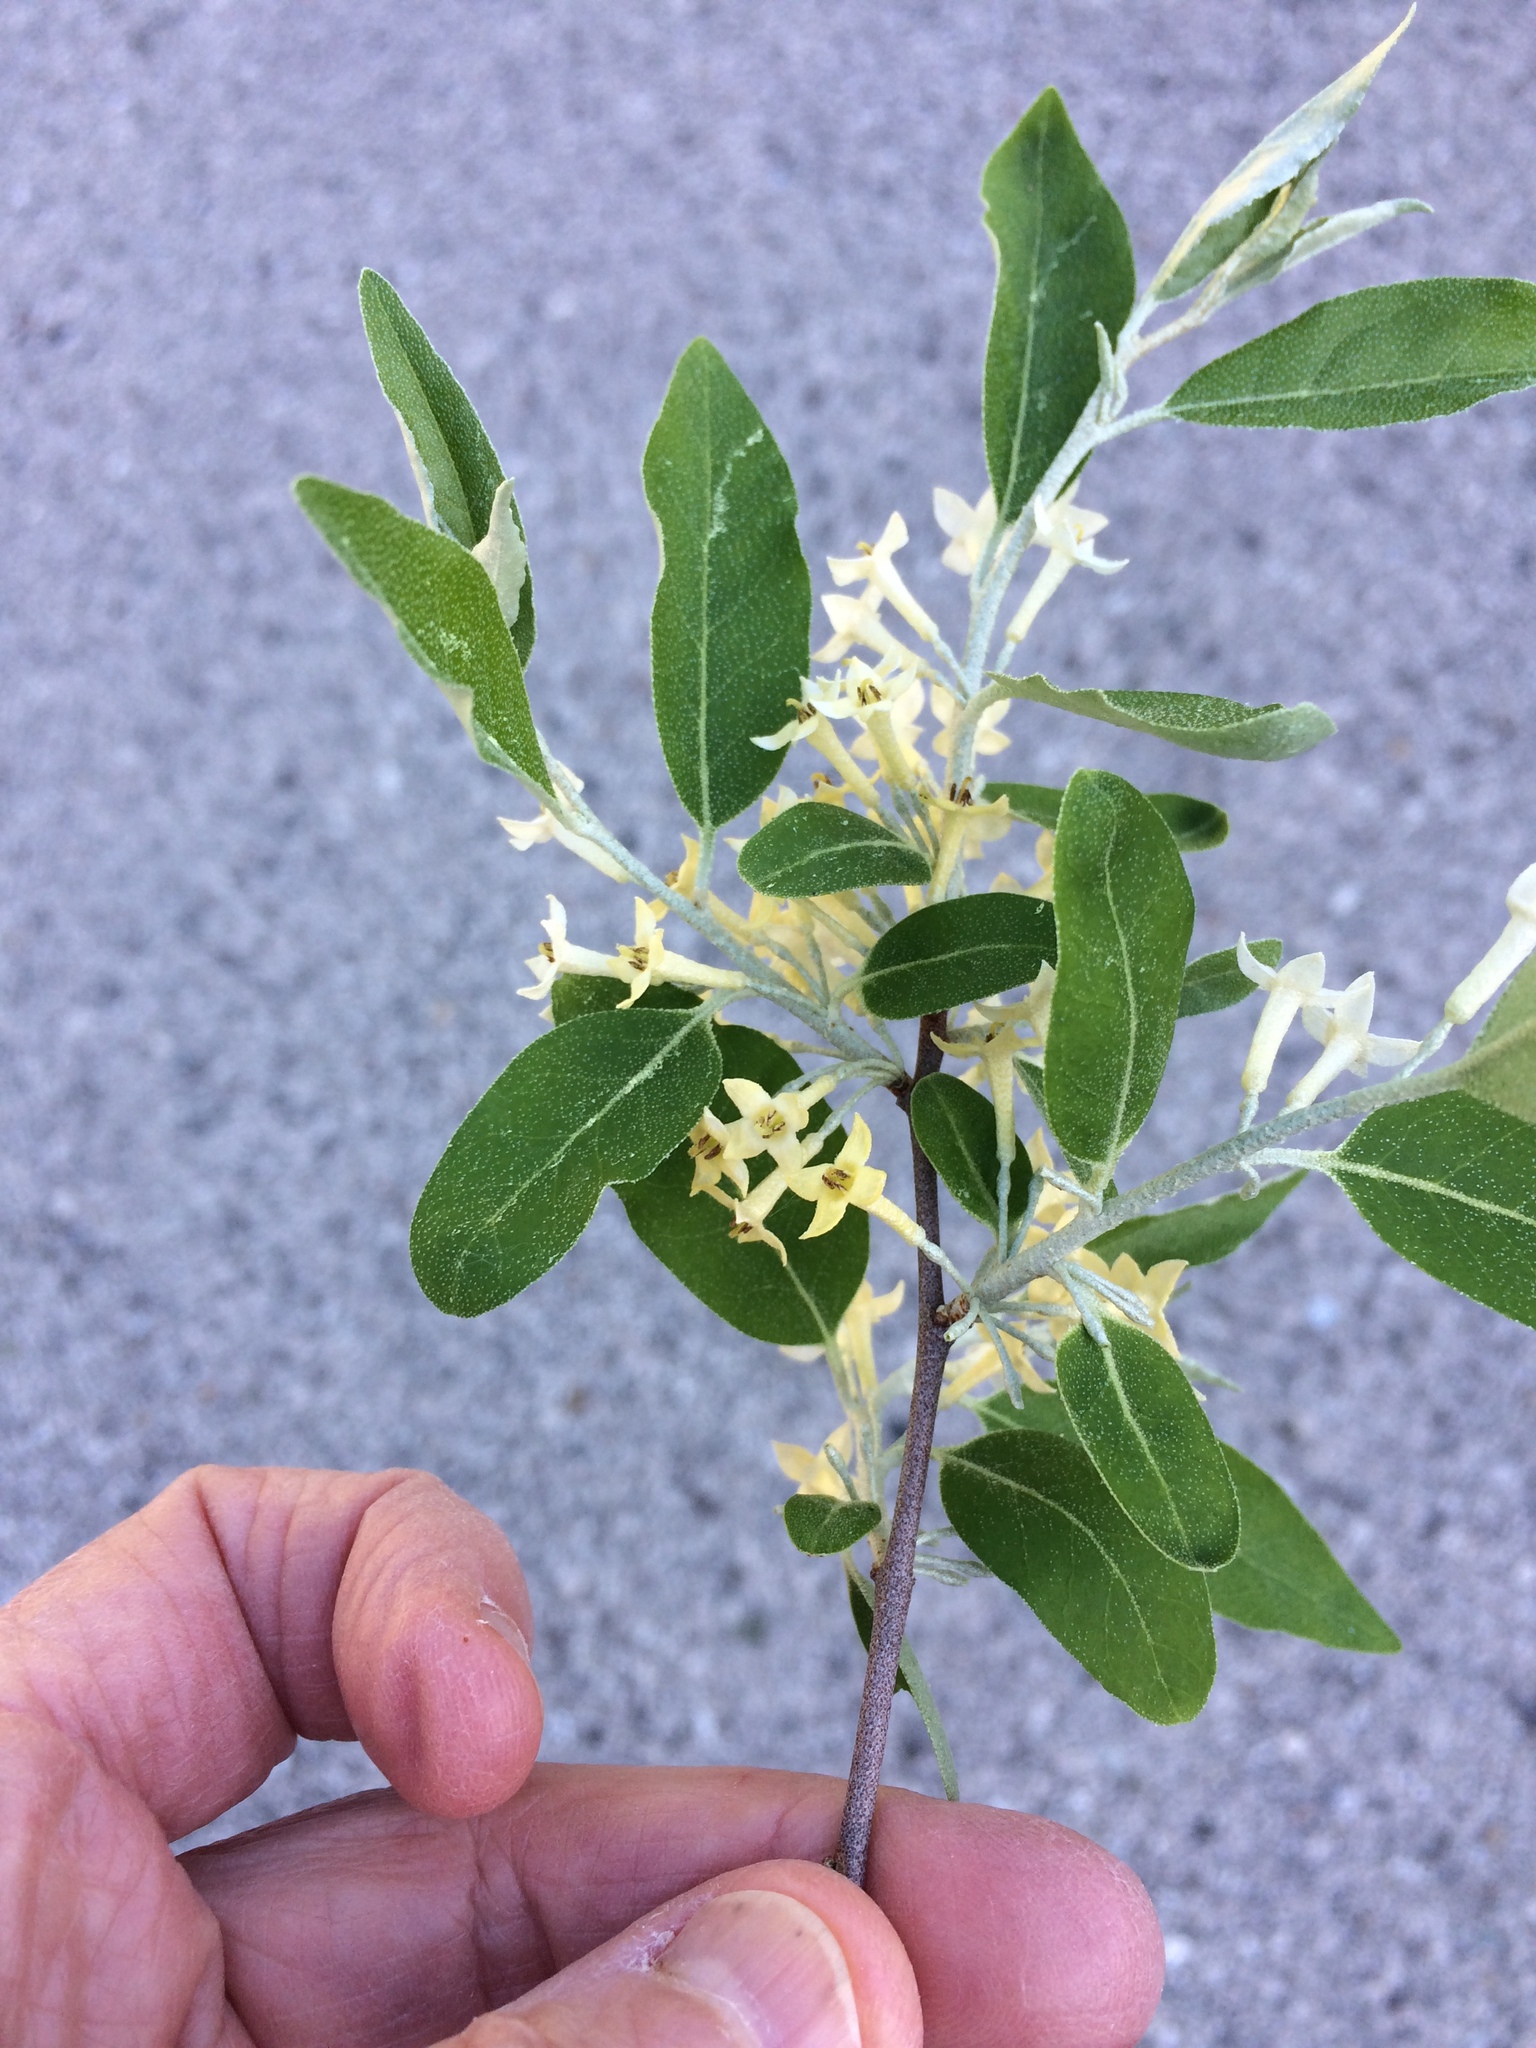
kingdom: Plantae
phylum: Tracheophyta
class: Magnoliopsida
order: Rosales
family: Elaeagnaceae
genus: Elaeagnus
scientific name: Elaeagnus umbellata
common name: Autumn olive
